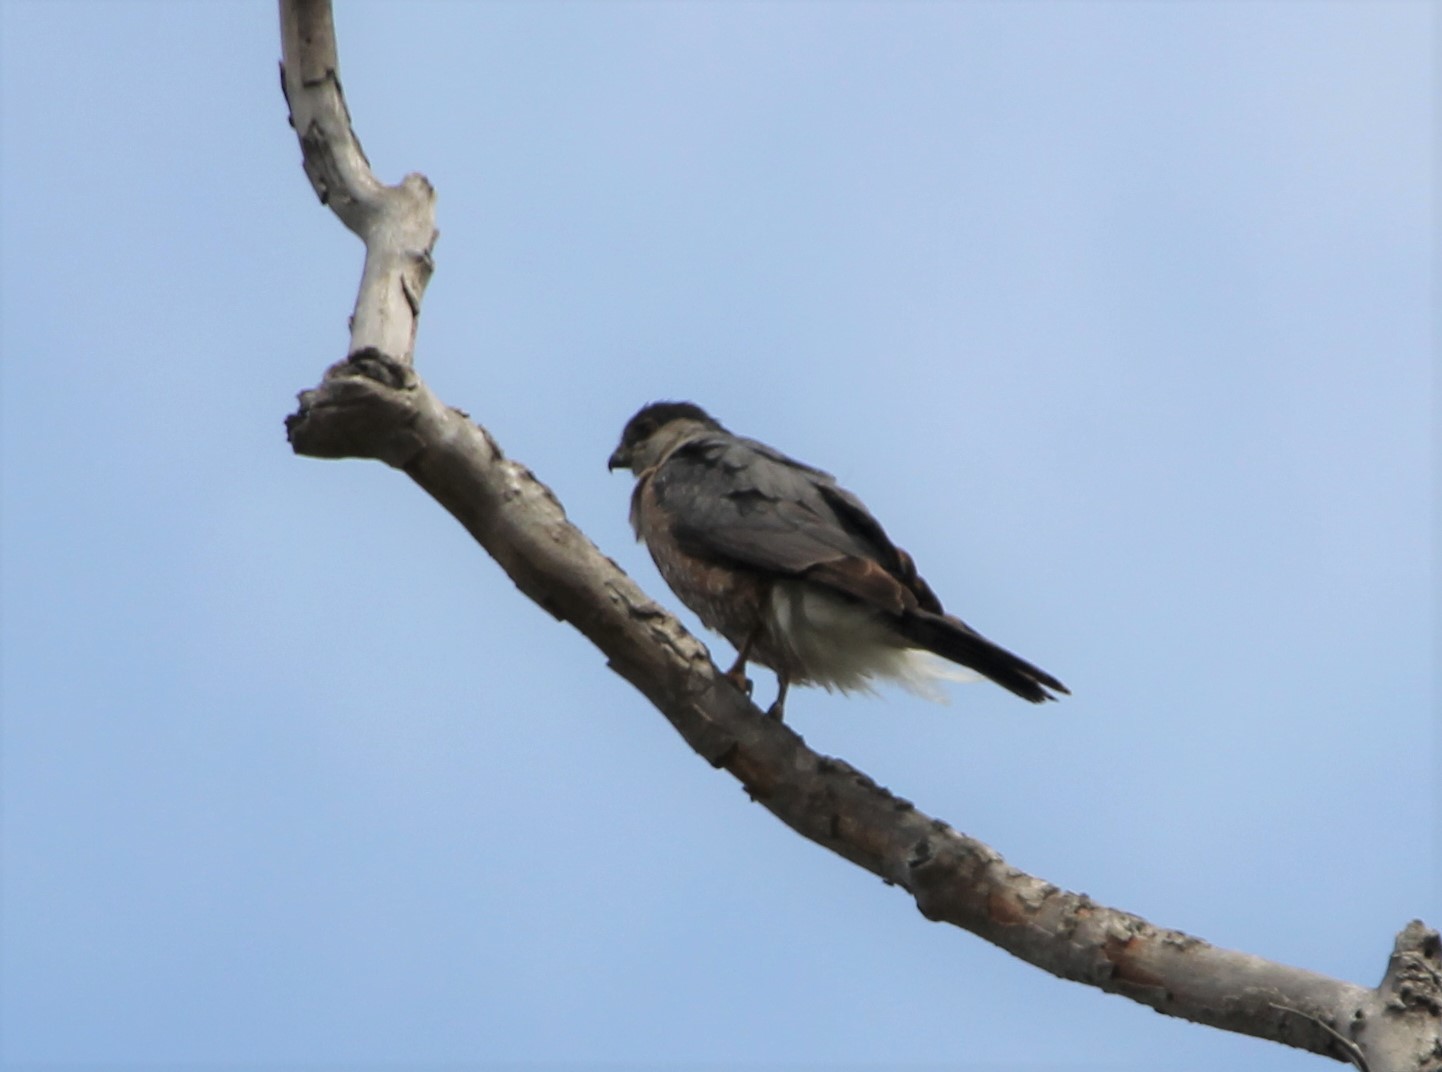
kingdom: Animalia
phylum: Chordata
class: Aves
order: Accipitriformes
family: Accipitridae
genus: Accipiter
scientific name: Accipiter cooperii
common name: Cooper's hawk
